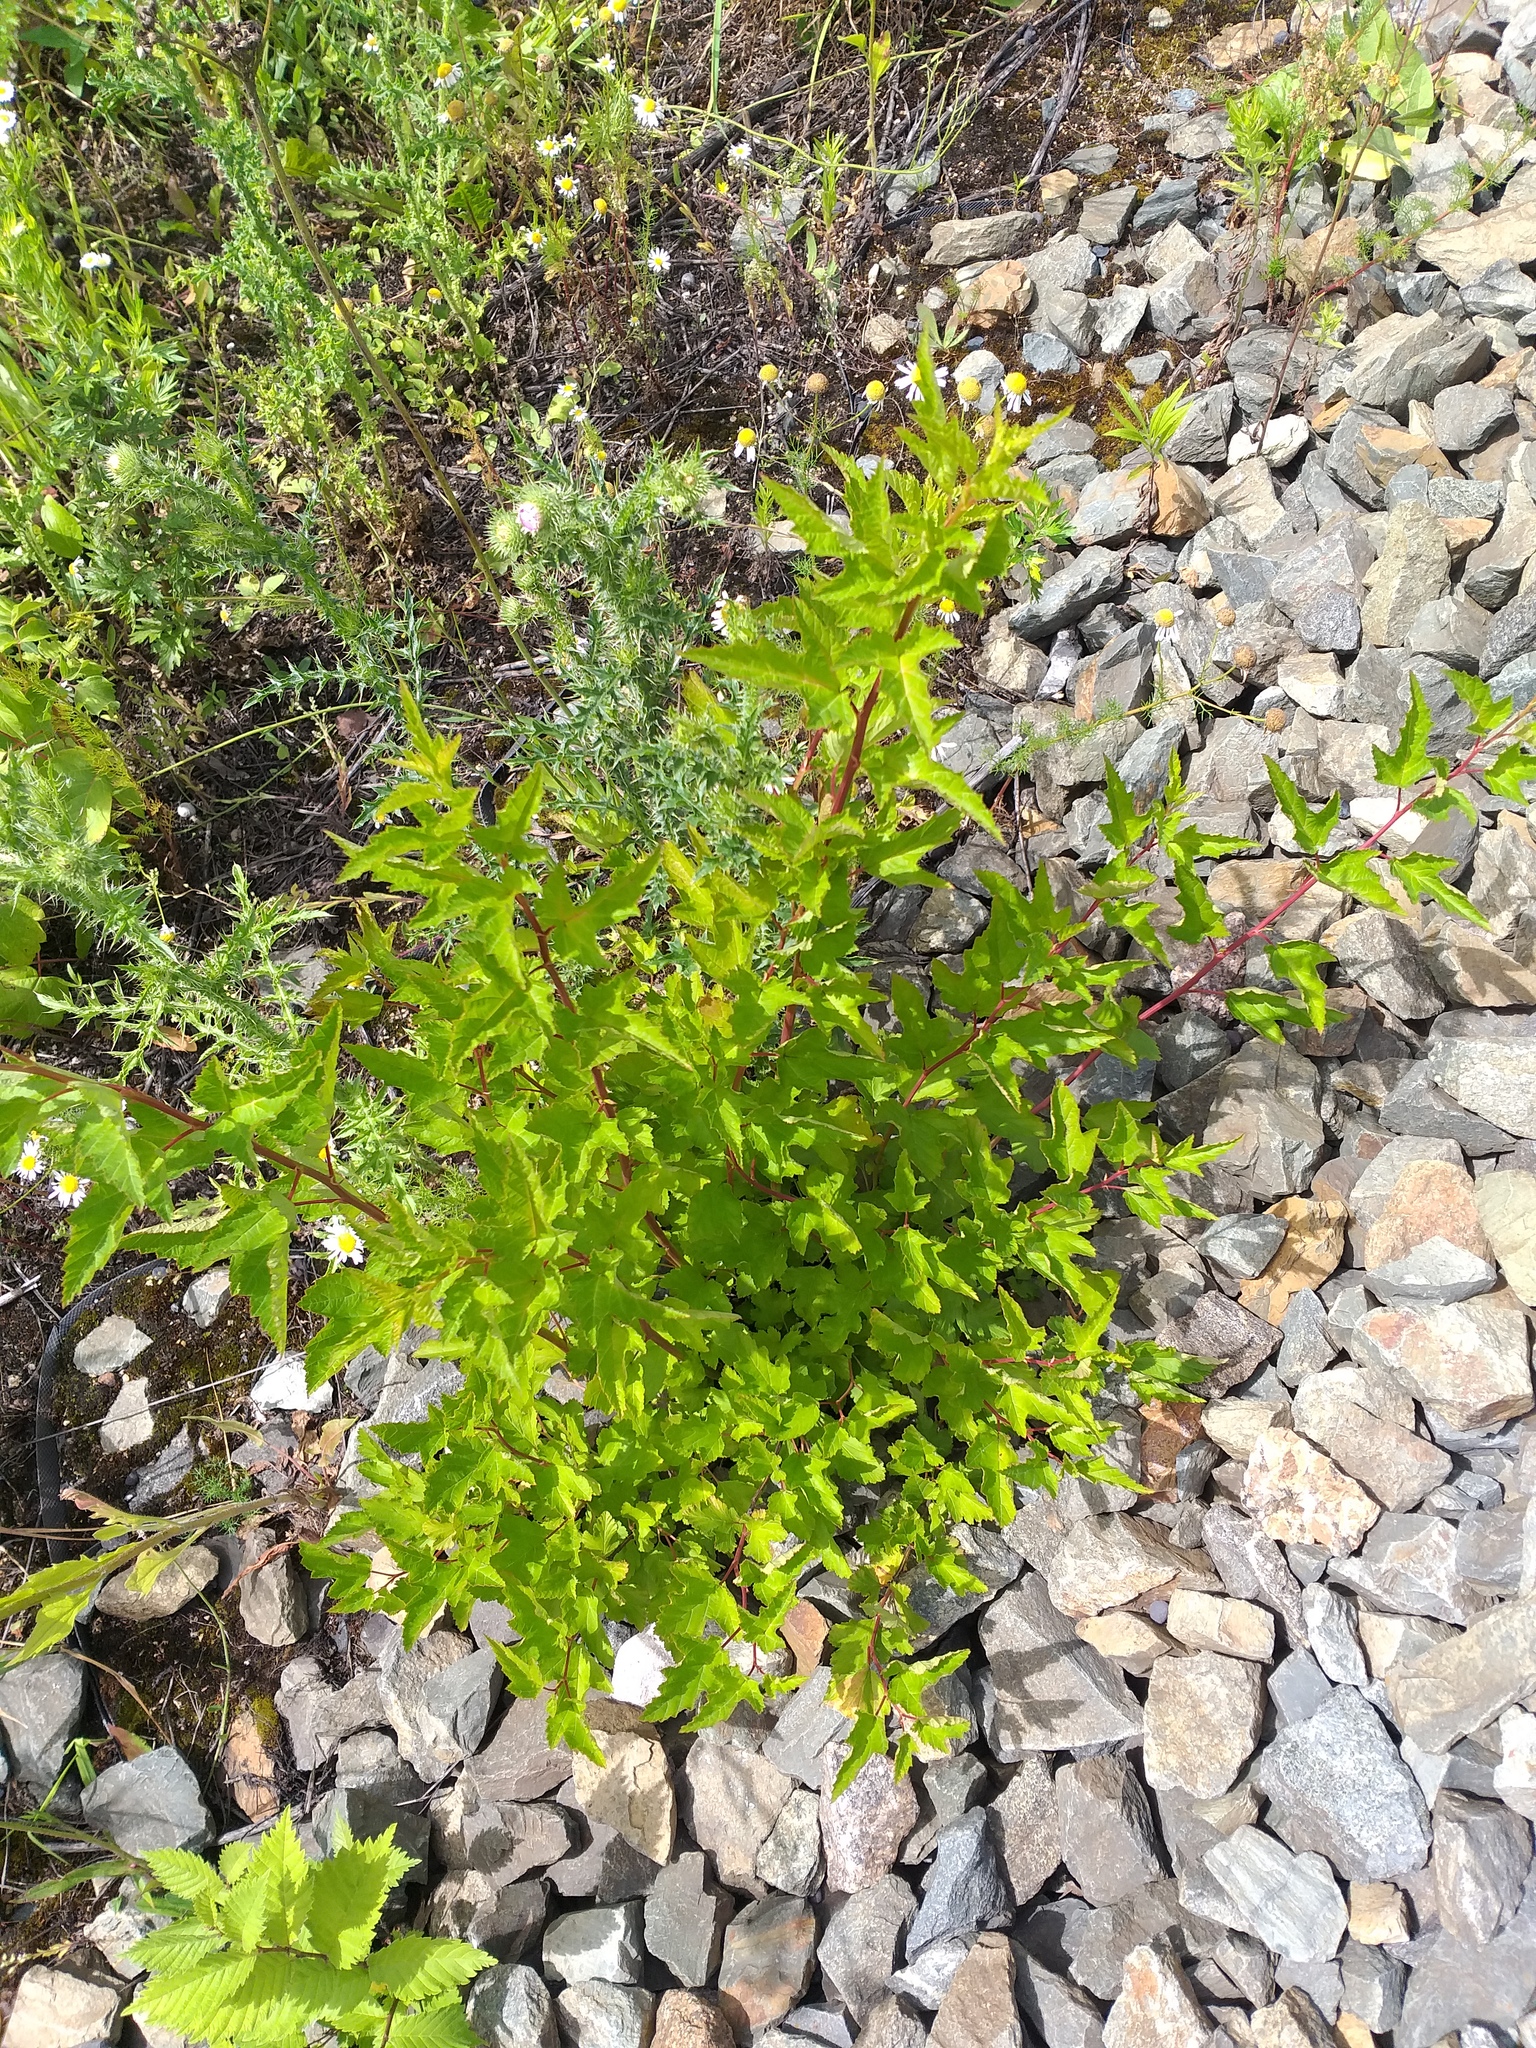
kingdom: Plantae
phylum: Tracheophyta
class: Magnoliopsida
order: Rosales
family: Rosaceae
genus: Physocarpus
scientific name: Physocarpus opulifolius
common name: Ninebark
